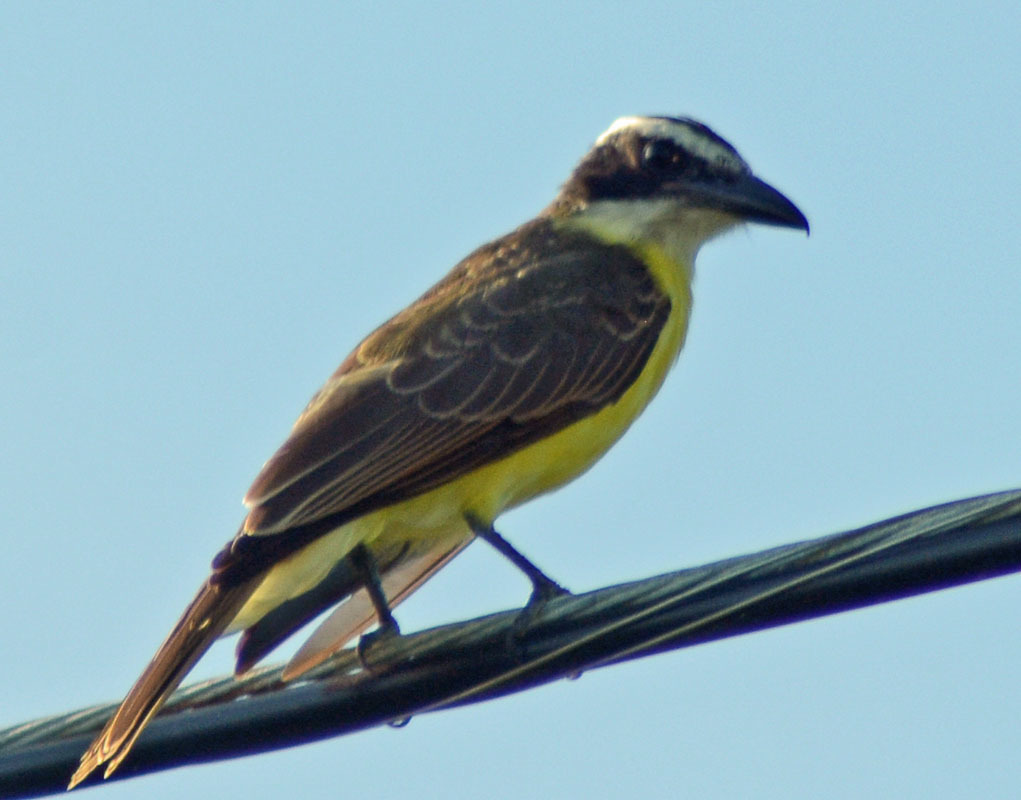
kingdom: Animalia
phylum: Chordata
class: Aves
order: Passeriformes
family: Tyrannidae
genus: Megarynchus
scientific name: Megarynchus pitangua
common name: Boat-billed flycatcher
